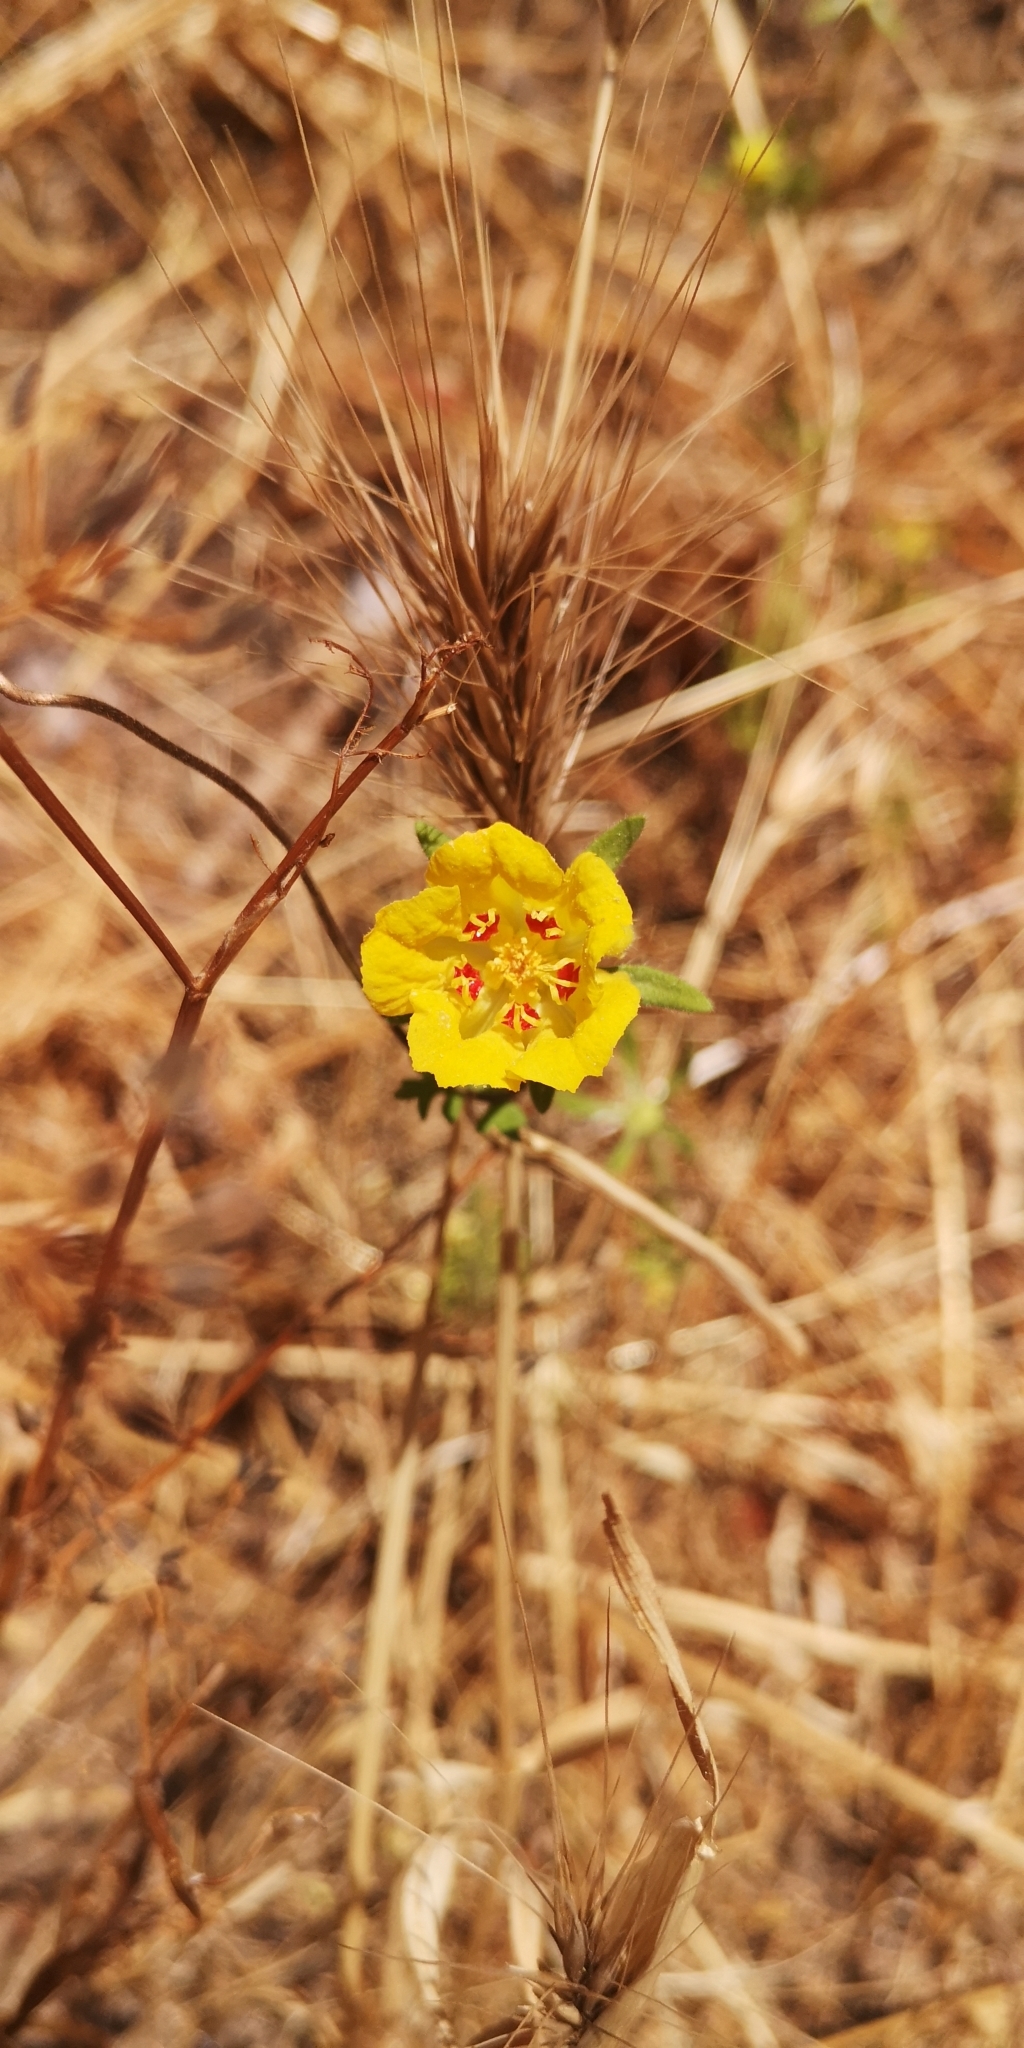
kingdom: Plantae
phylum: Tracheophyta
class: Magnoliopsida
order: Cornales
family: Loasaceae
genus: Scyphanthus
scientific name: Scyphanthus elegans
